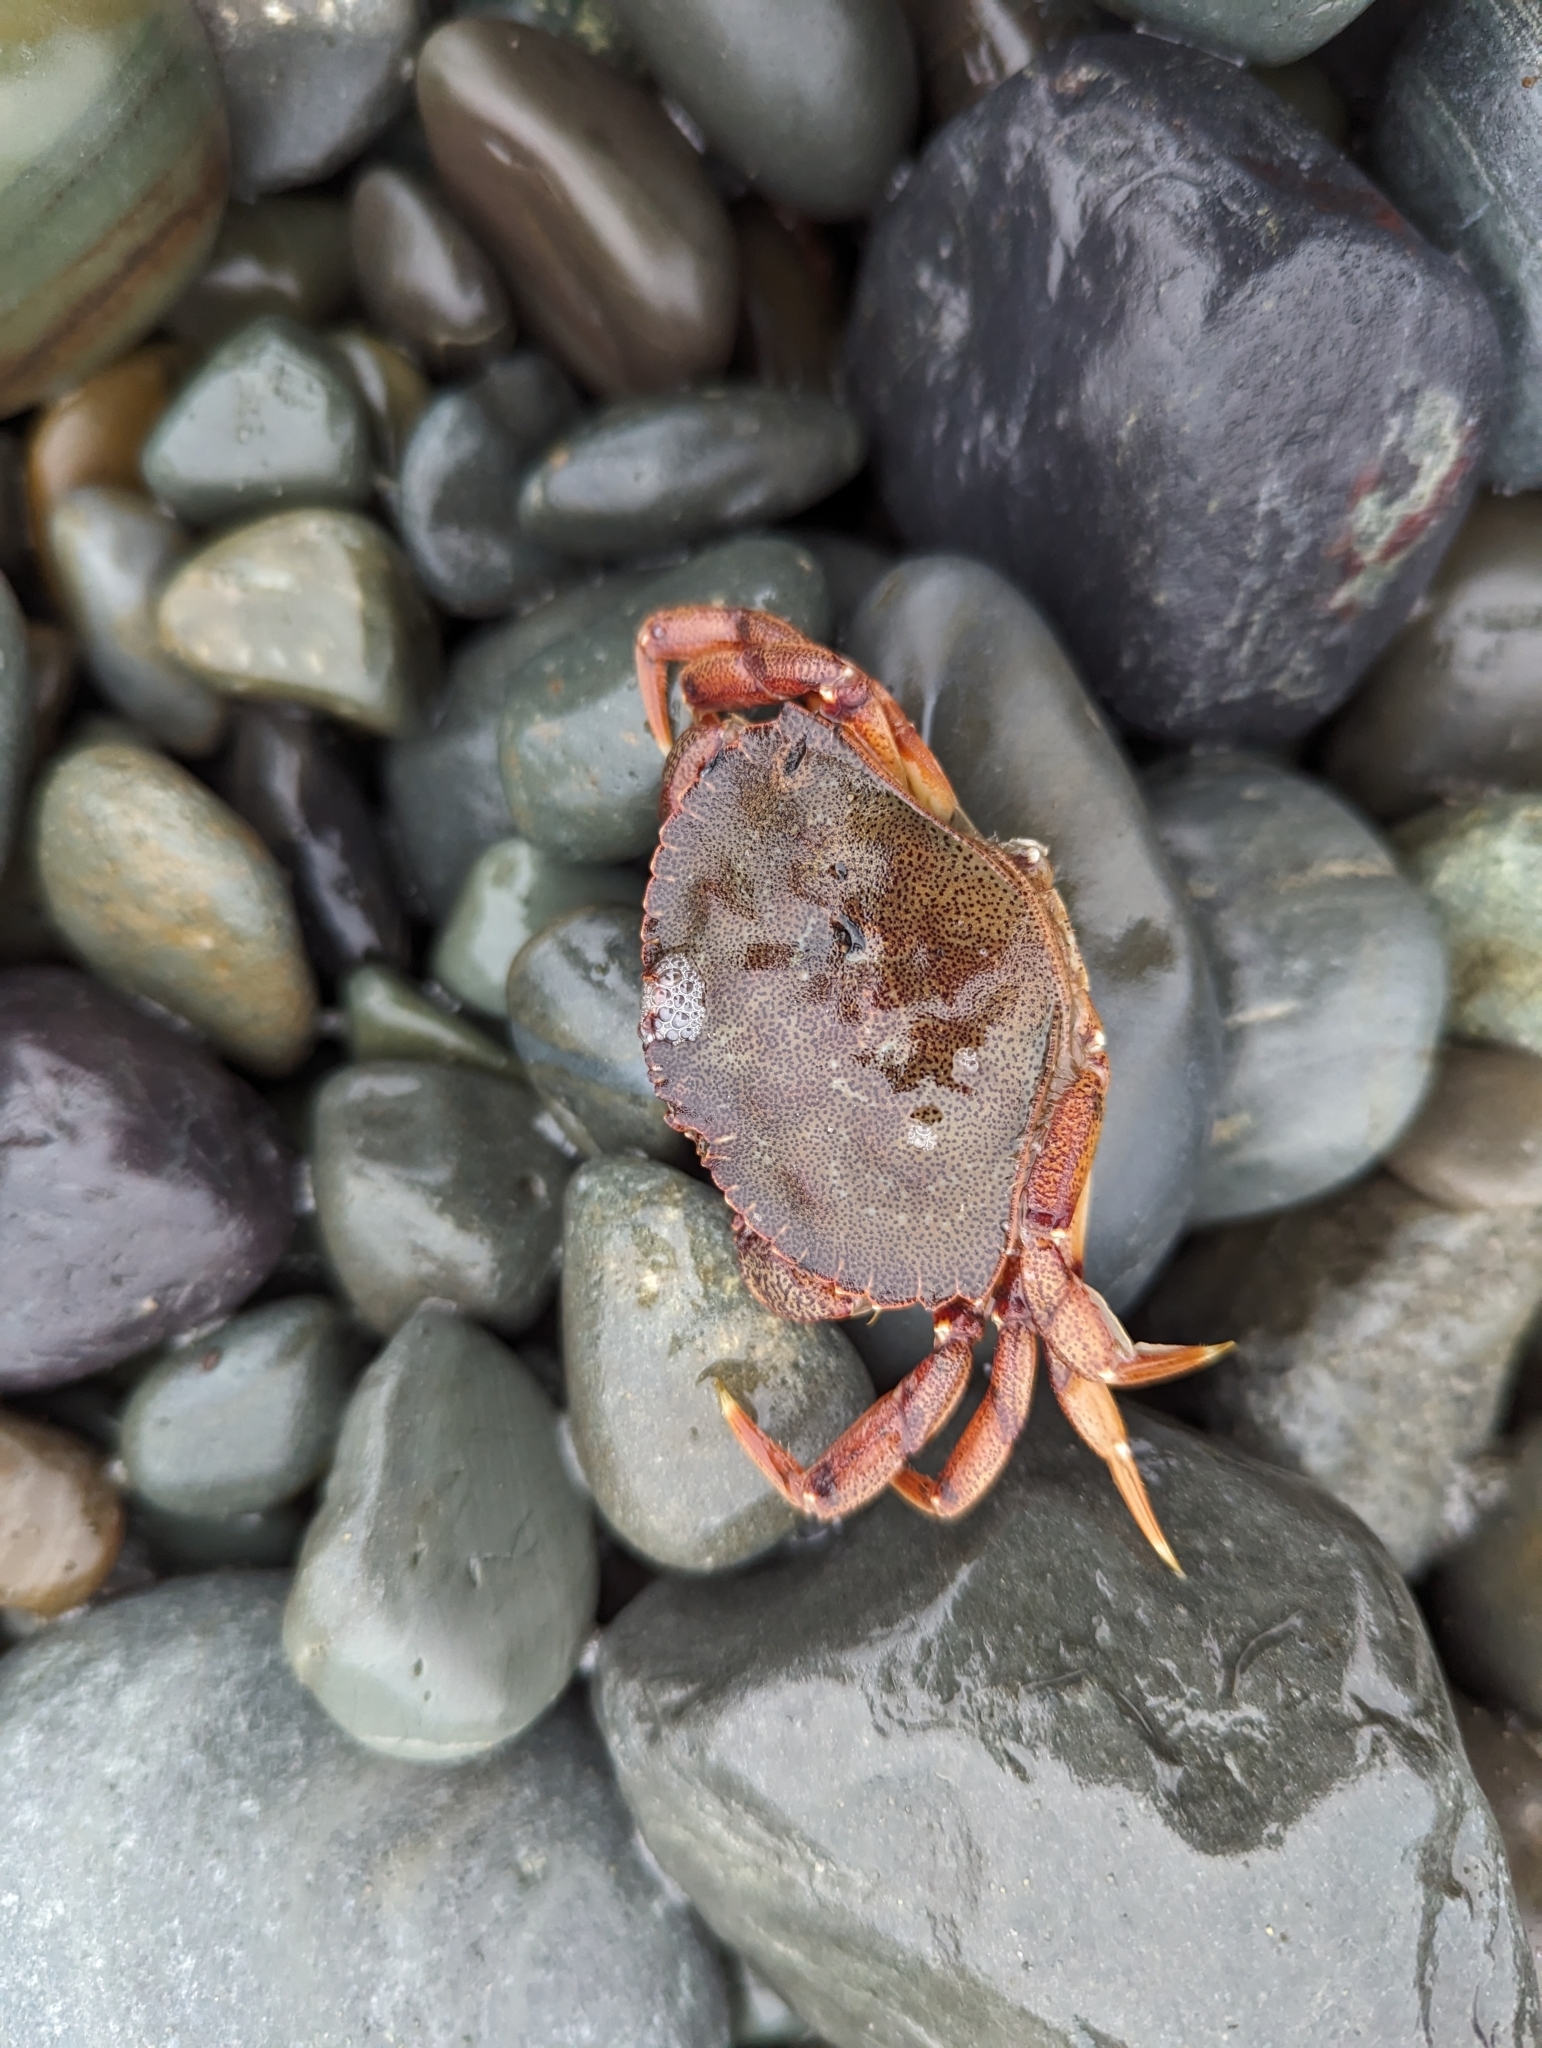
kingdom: Animalia
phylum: Arthropoda
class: Malacostraca
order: Decapoda
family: Cancridae
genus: Cancer
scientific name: Cancer irroratus
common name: Atlantic rock crab
